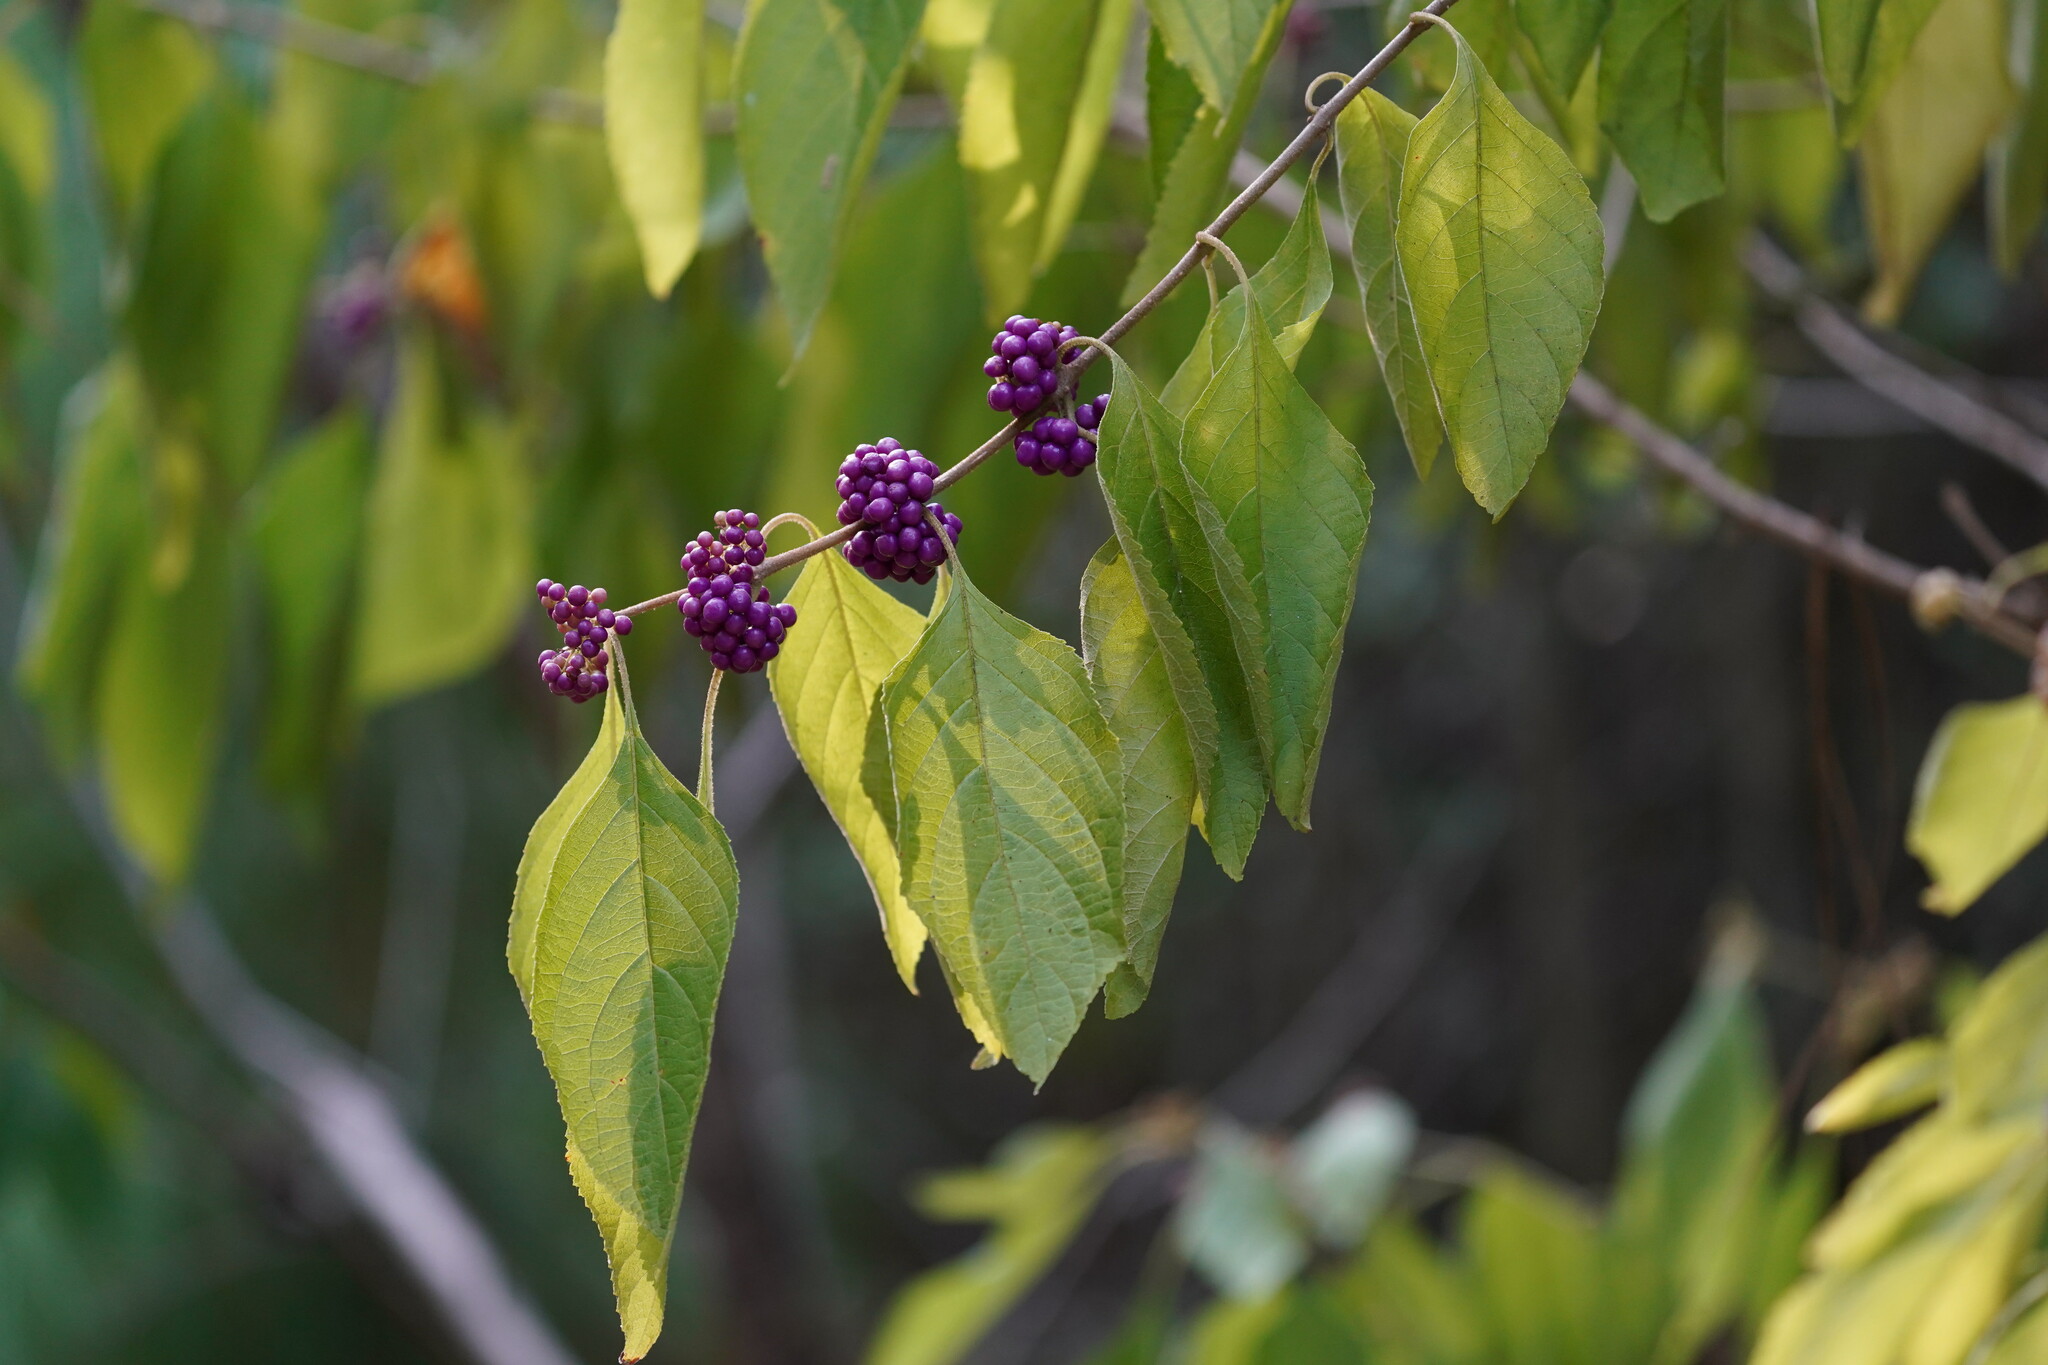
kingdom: Plantae
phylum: Tracheophyta
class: Magnoliopsida
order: Lamiales
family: Lamiaceae
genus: Callicarpa
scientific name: Callicarpa americana
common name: American beautyberry
